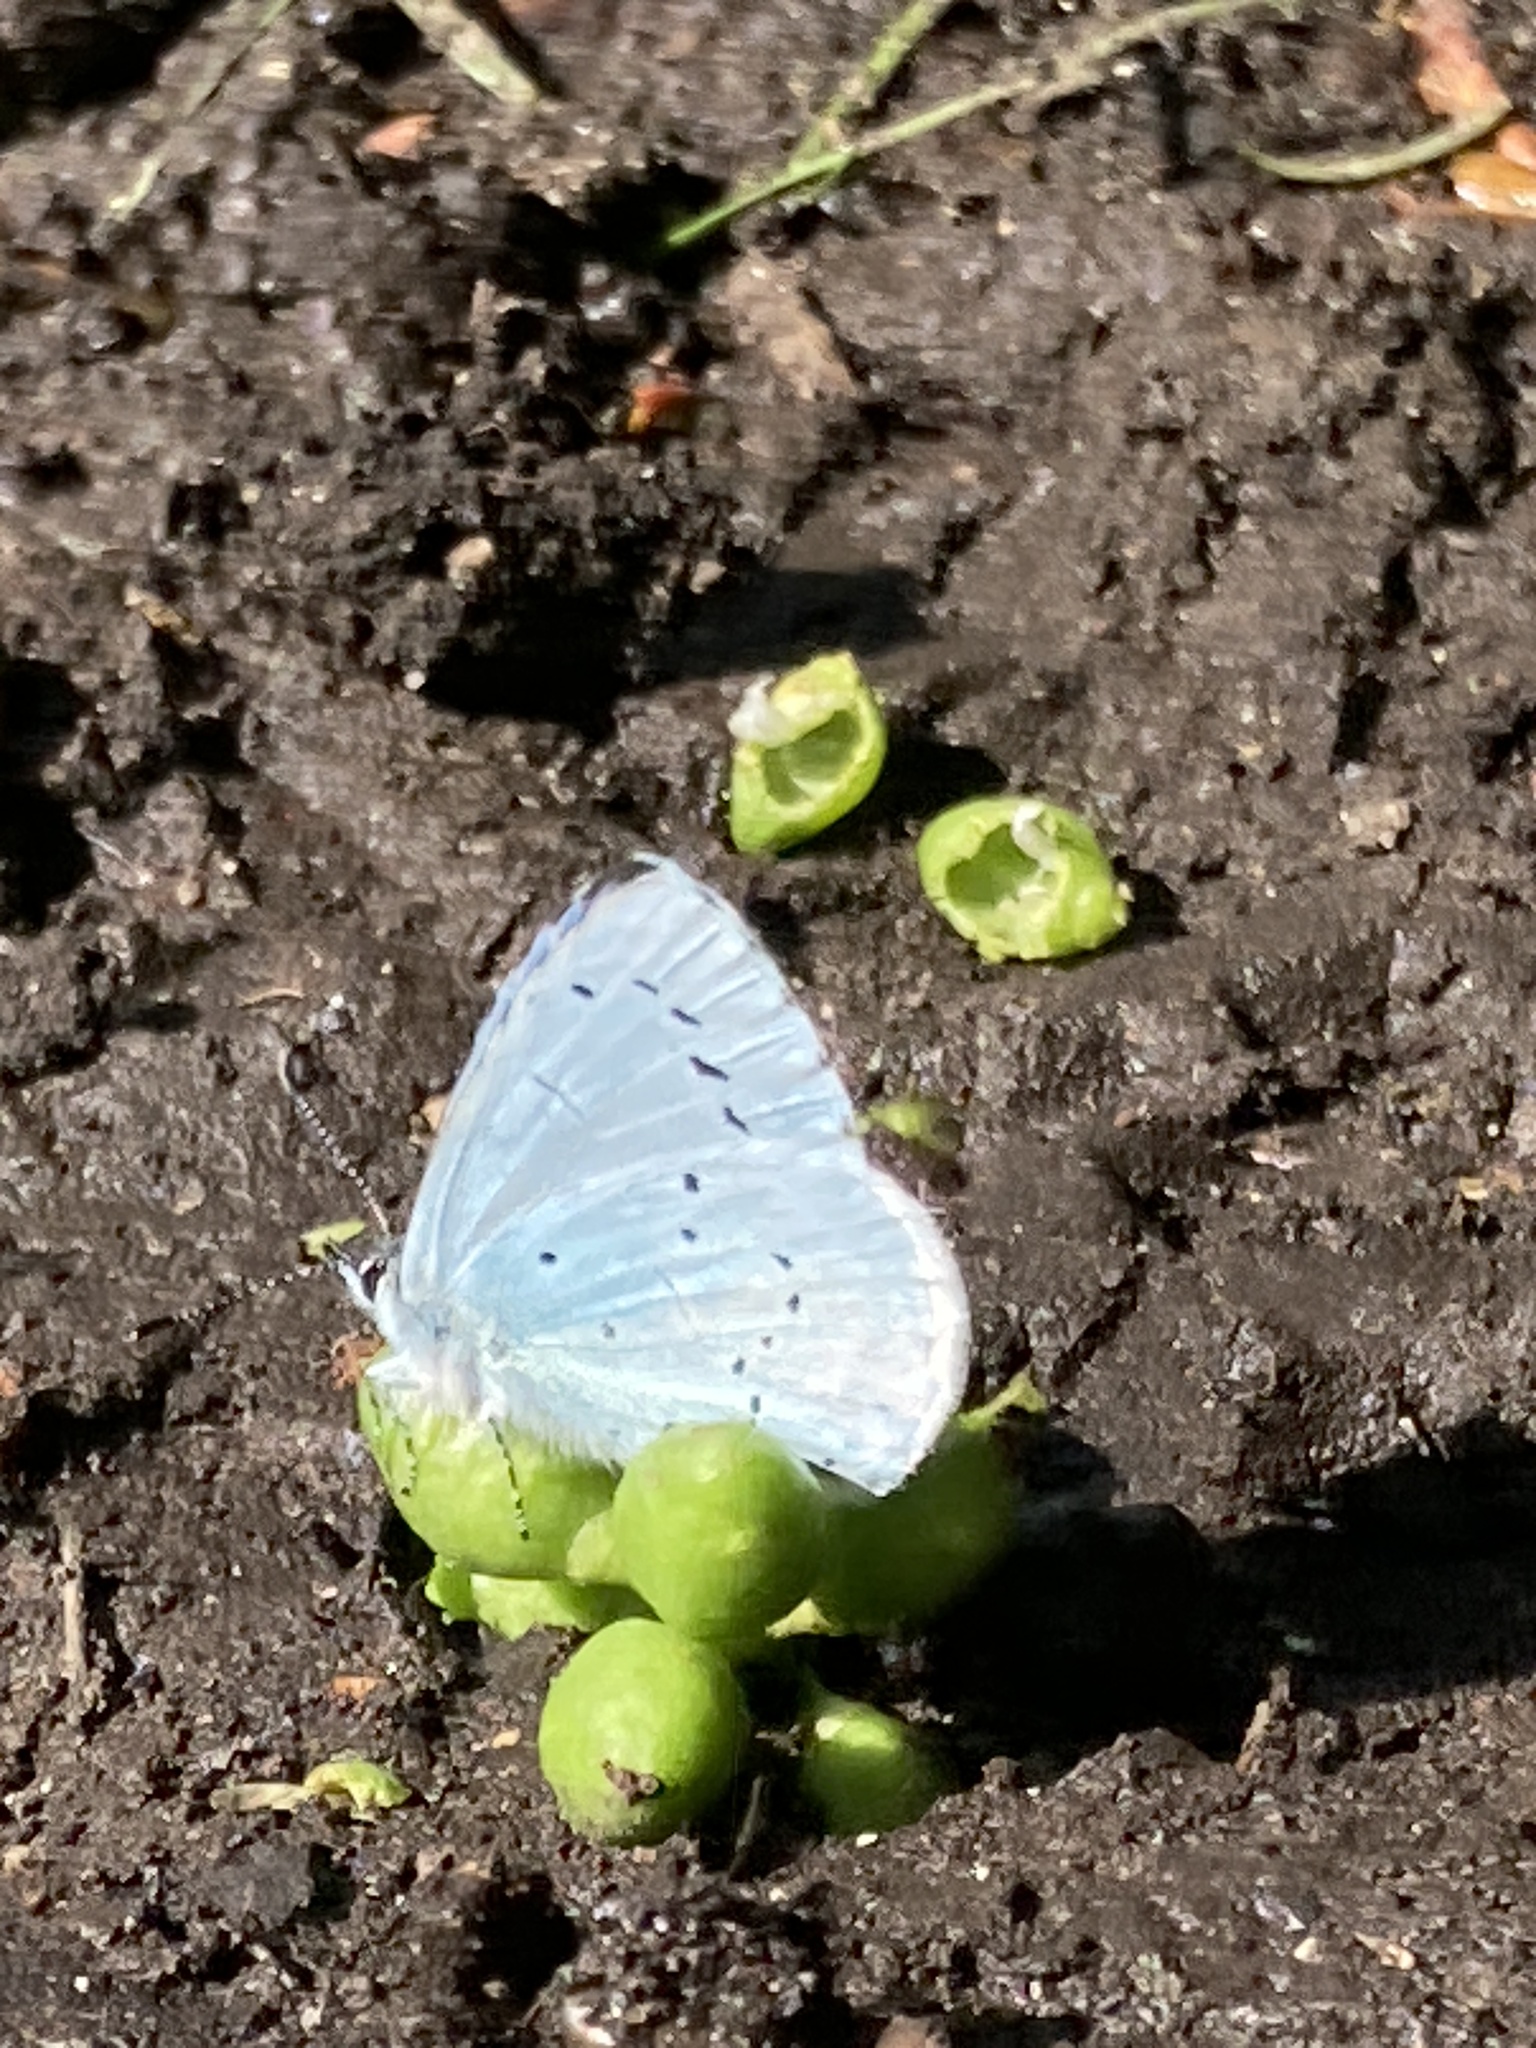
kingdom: Animalia
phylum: Arthropoda
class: Insecta
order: Lepidoptera
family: Lycaenidae
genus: Celastrina
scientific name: Celastrina argiolus
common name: Holly blue
